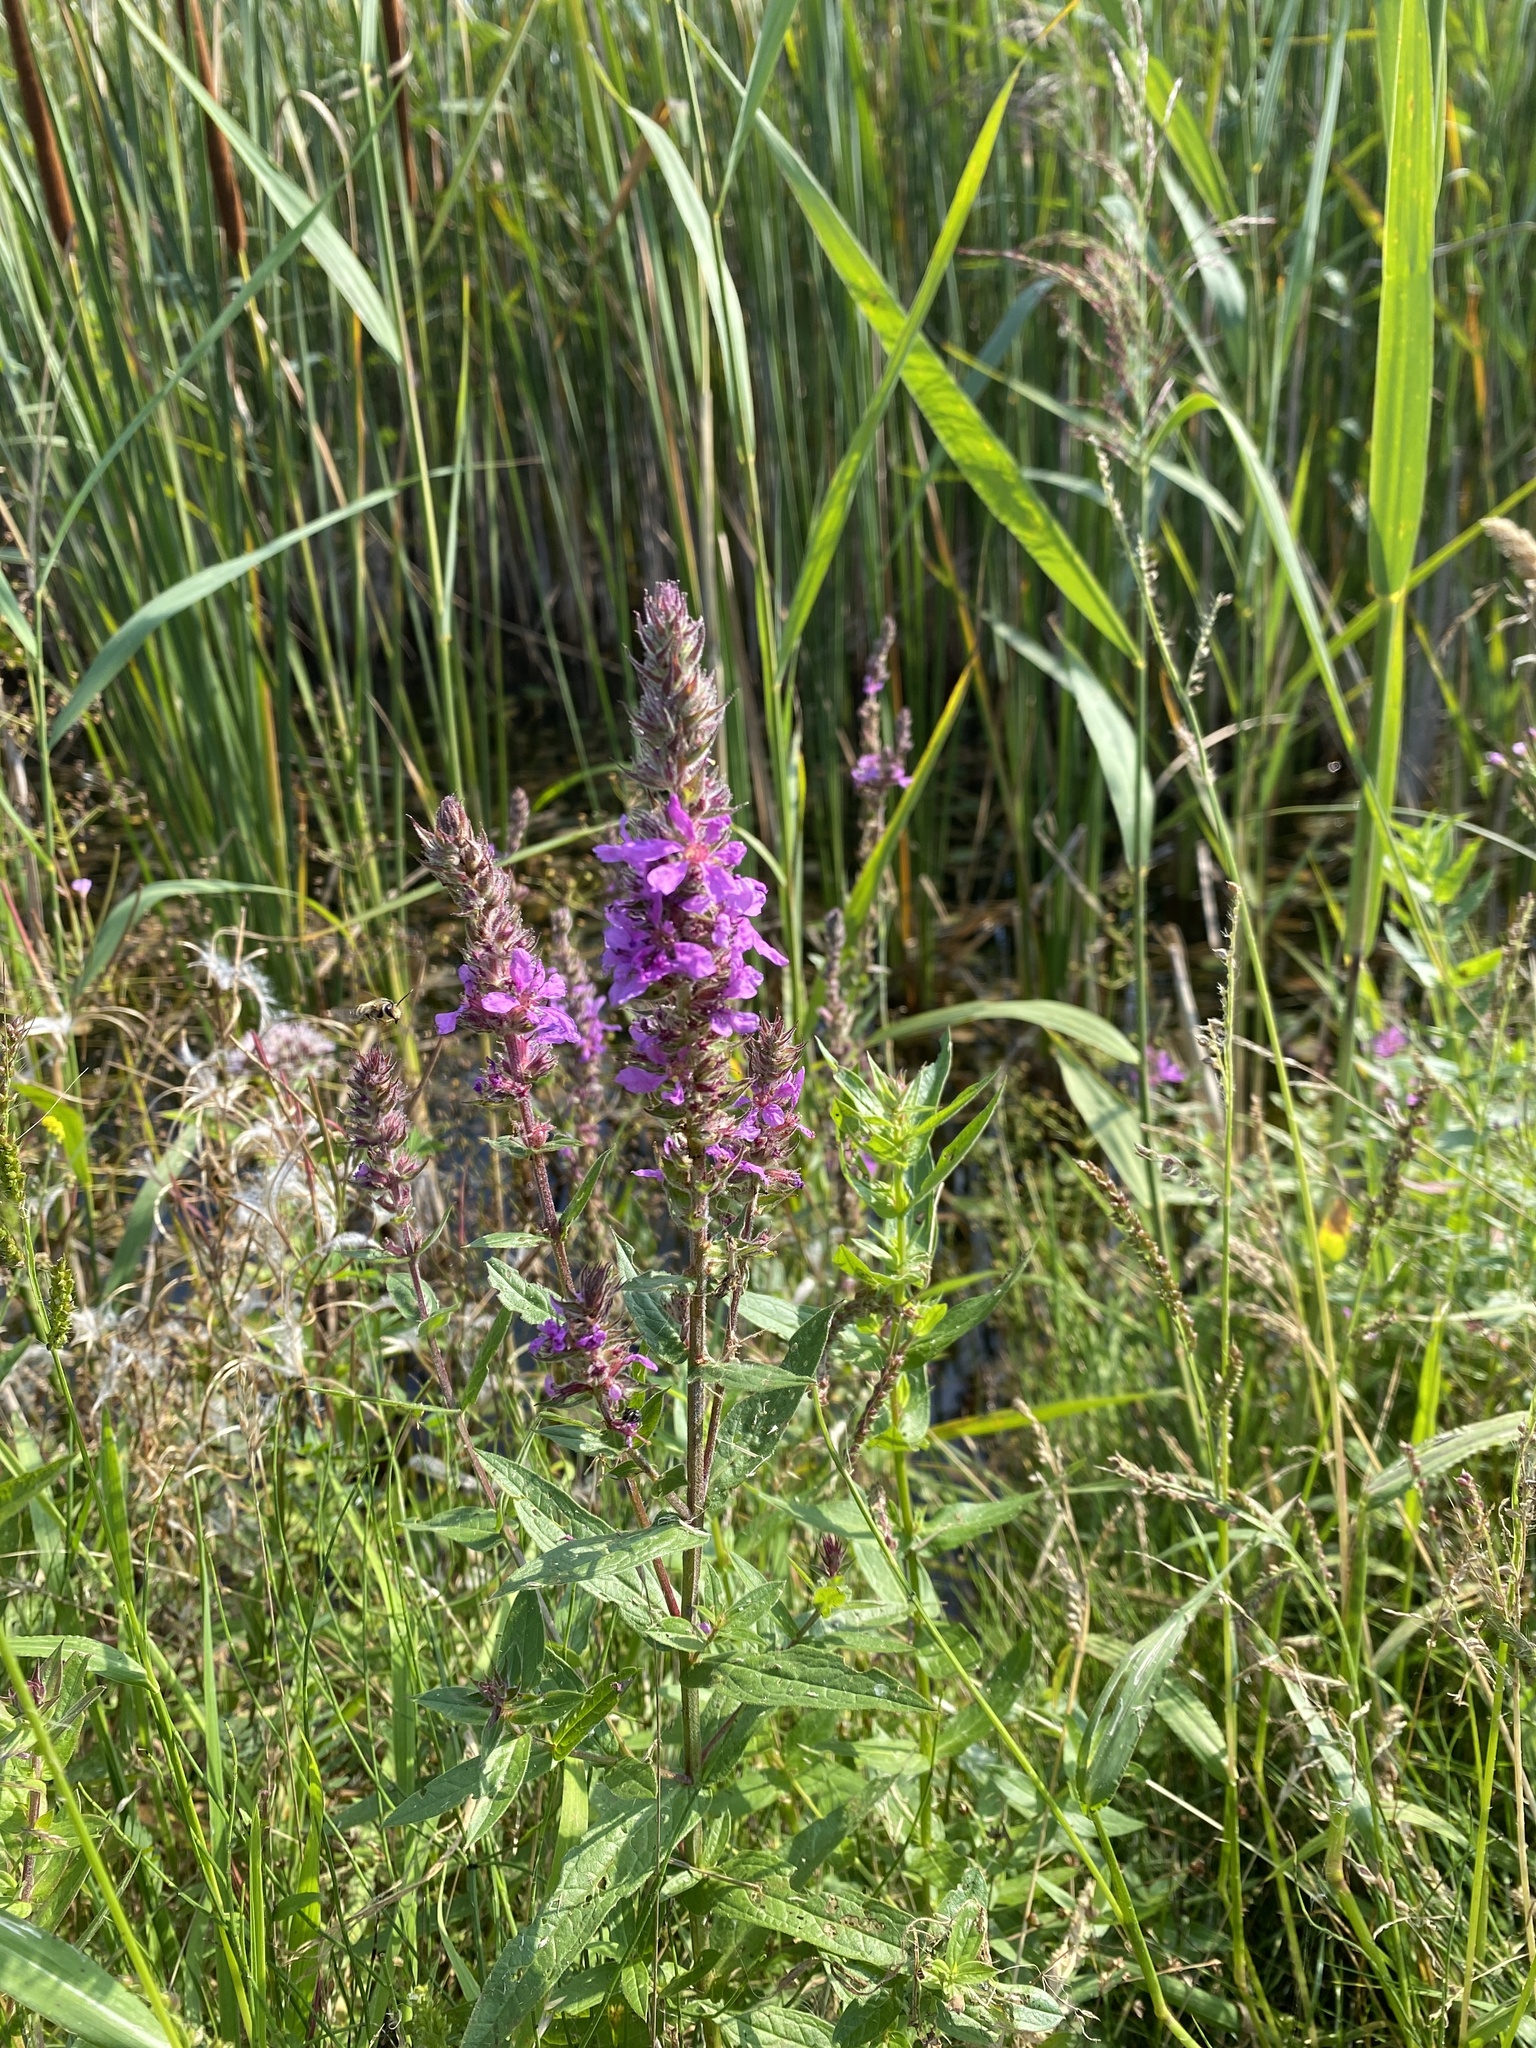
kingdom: Plantae
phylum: Tracheophyta
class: Magnoliopsida
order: Myrtales
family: Lythraceae
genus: Lythrum
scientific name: Lythrum salicaria
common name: Purple loosestrife
